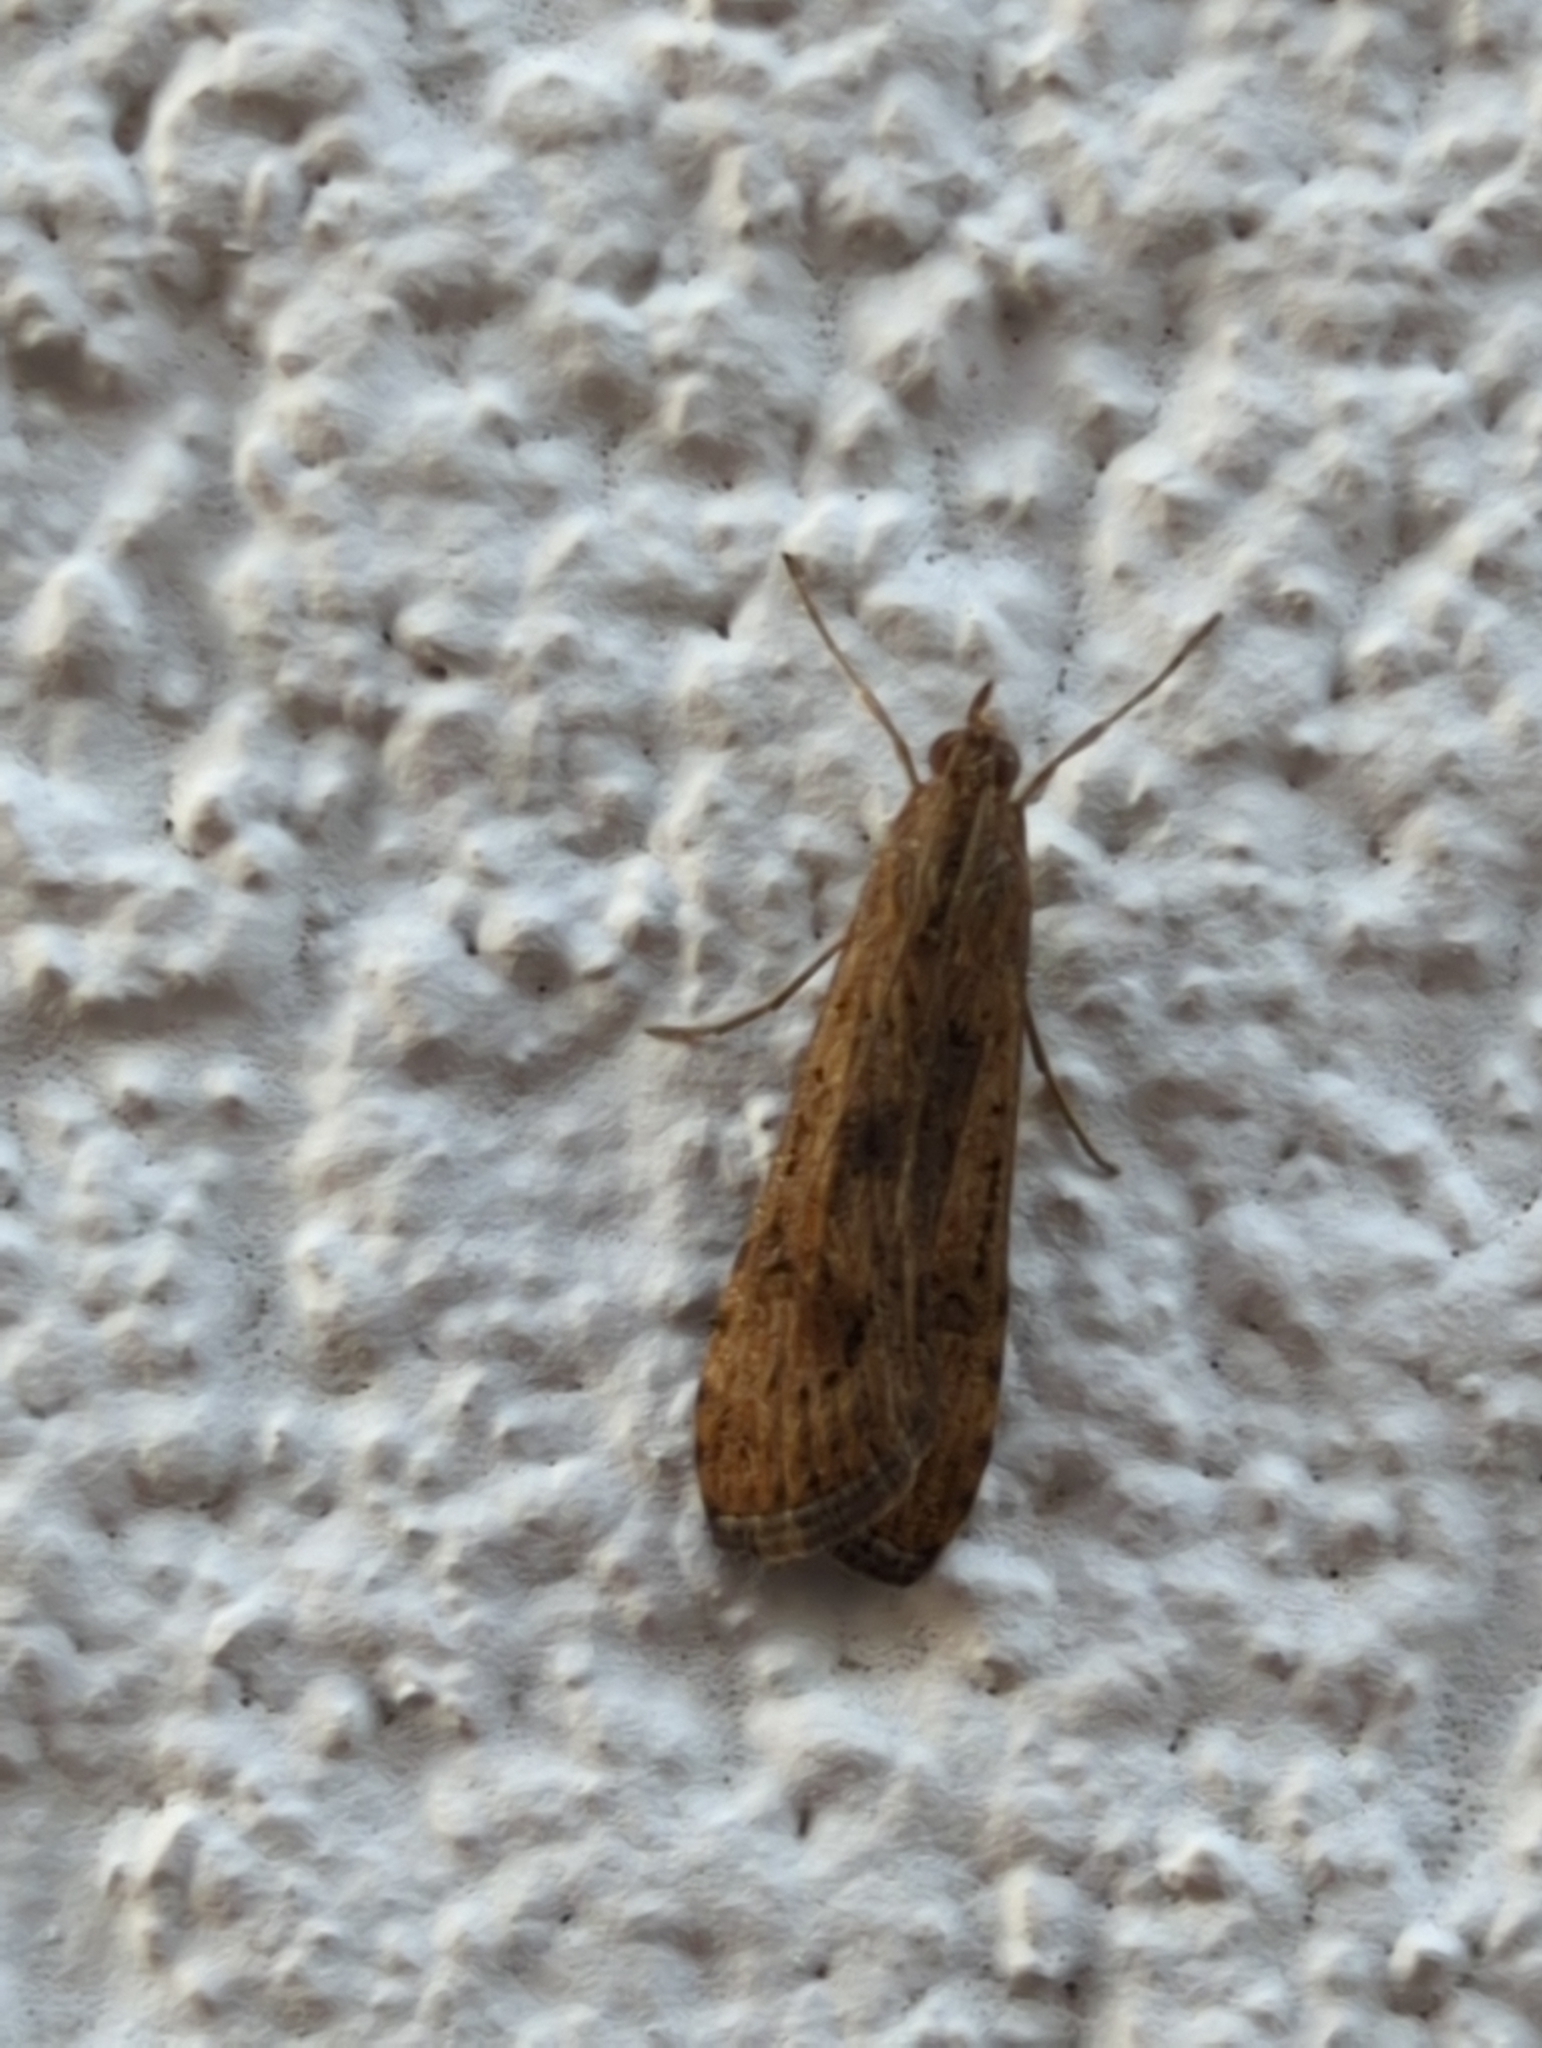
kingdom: Animalia
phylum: Arthropoda
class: Insecta
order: Lepidoptera
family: Crambidae
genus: Nomophila
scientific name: Nomophila noctuella
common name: Rush veneer
